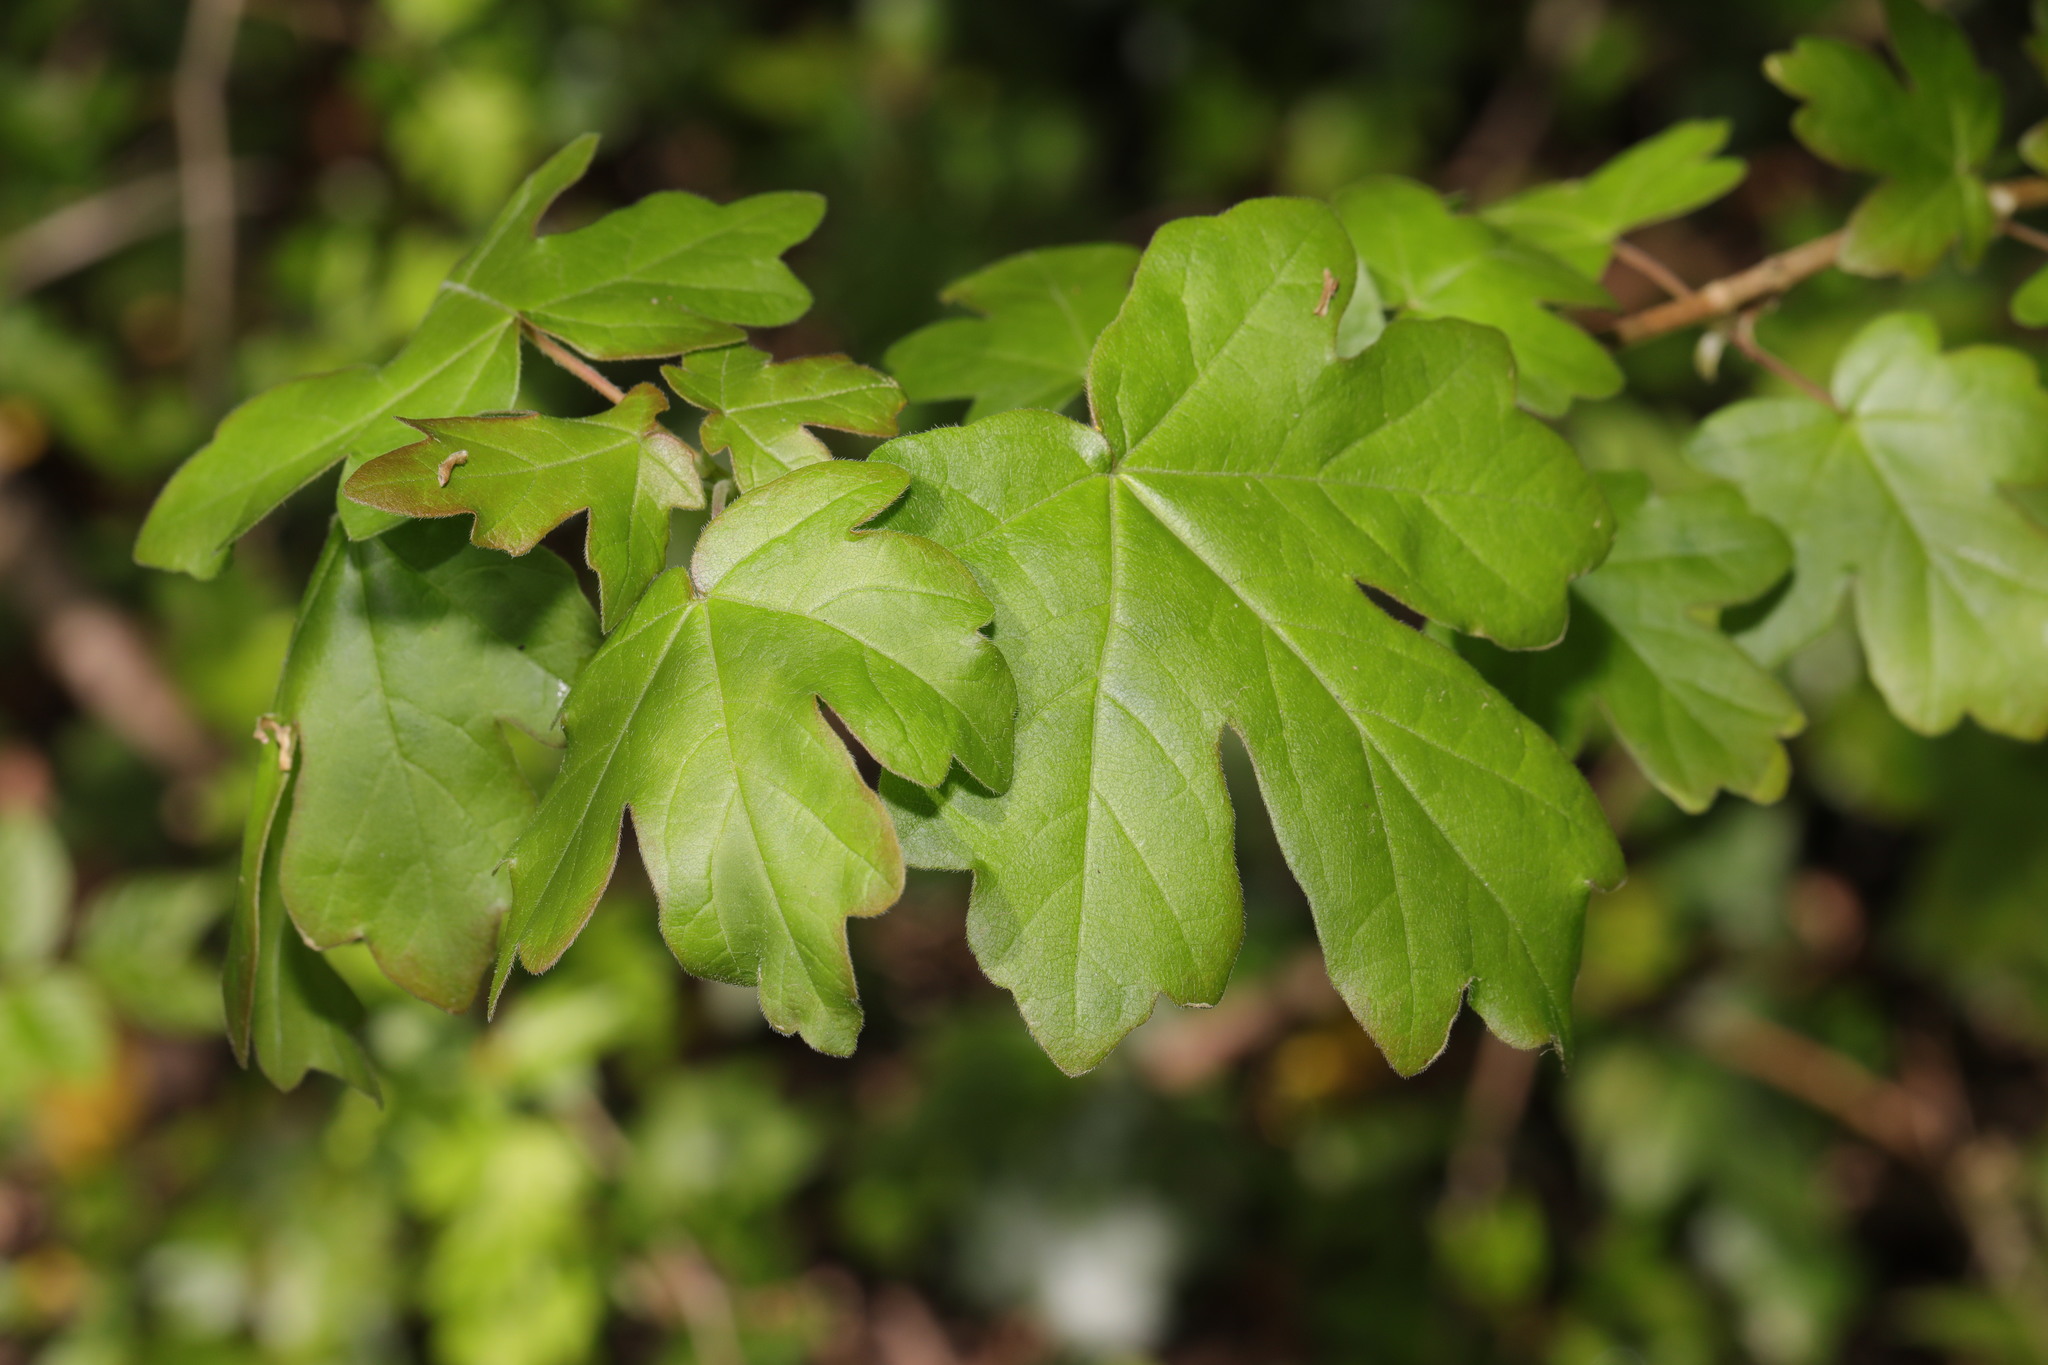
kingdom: Plantae
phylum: Tracheophyta
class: Magnoliopsida
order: Sapindales
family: Sapindaceae
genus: Acer
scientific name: Acer campestre
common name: Field maple
